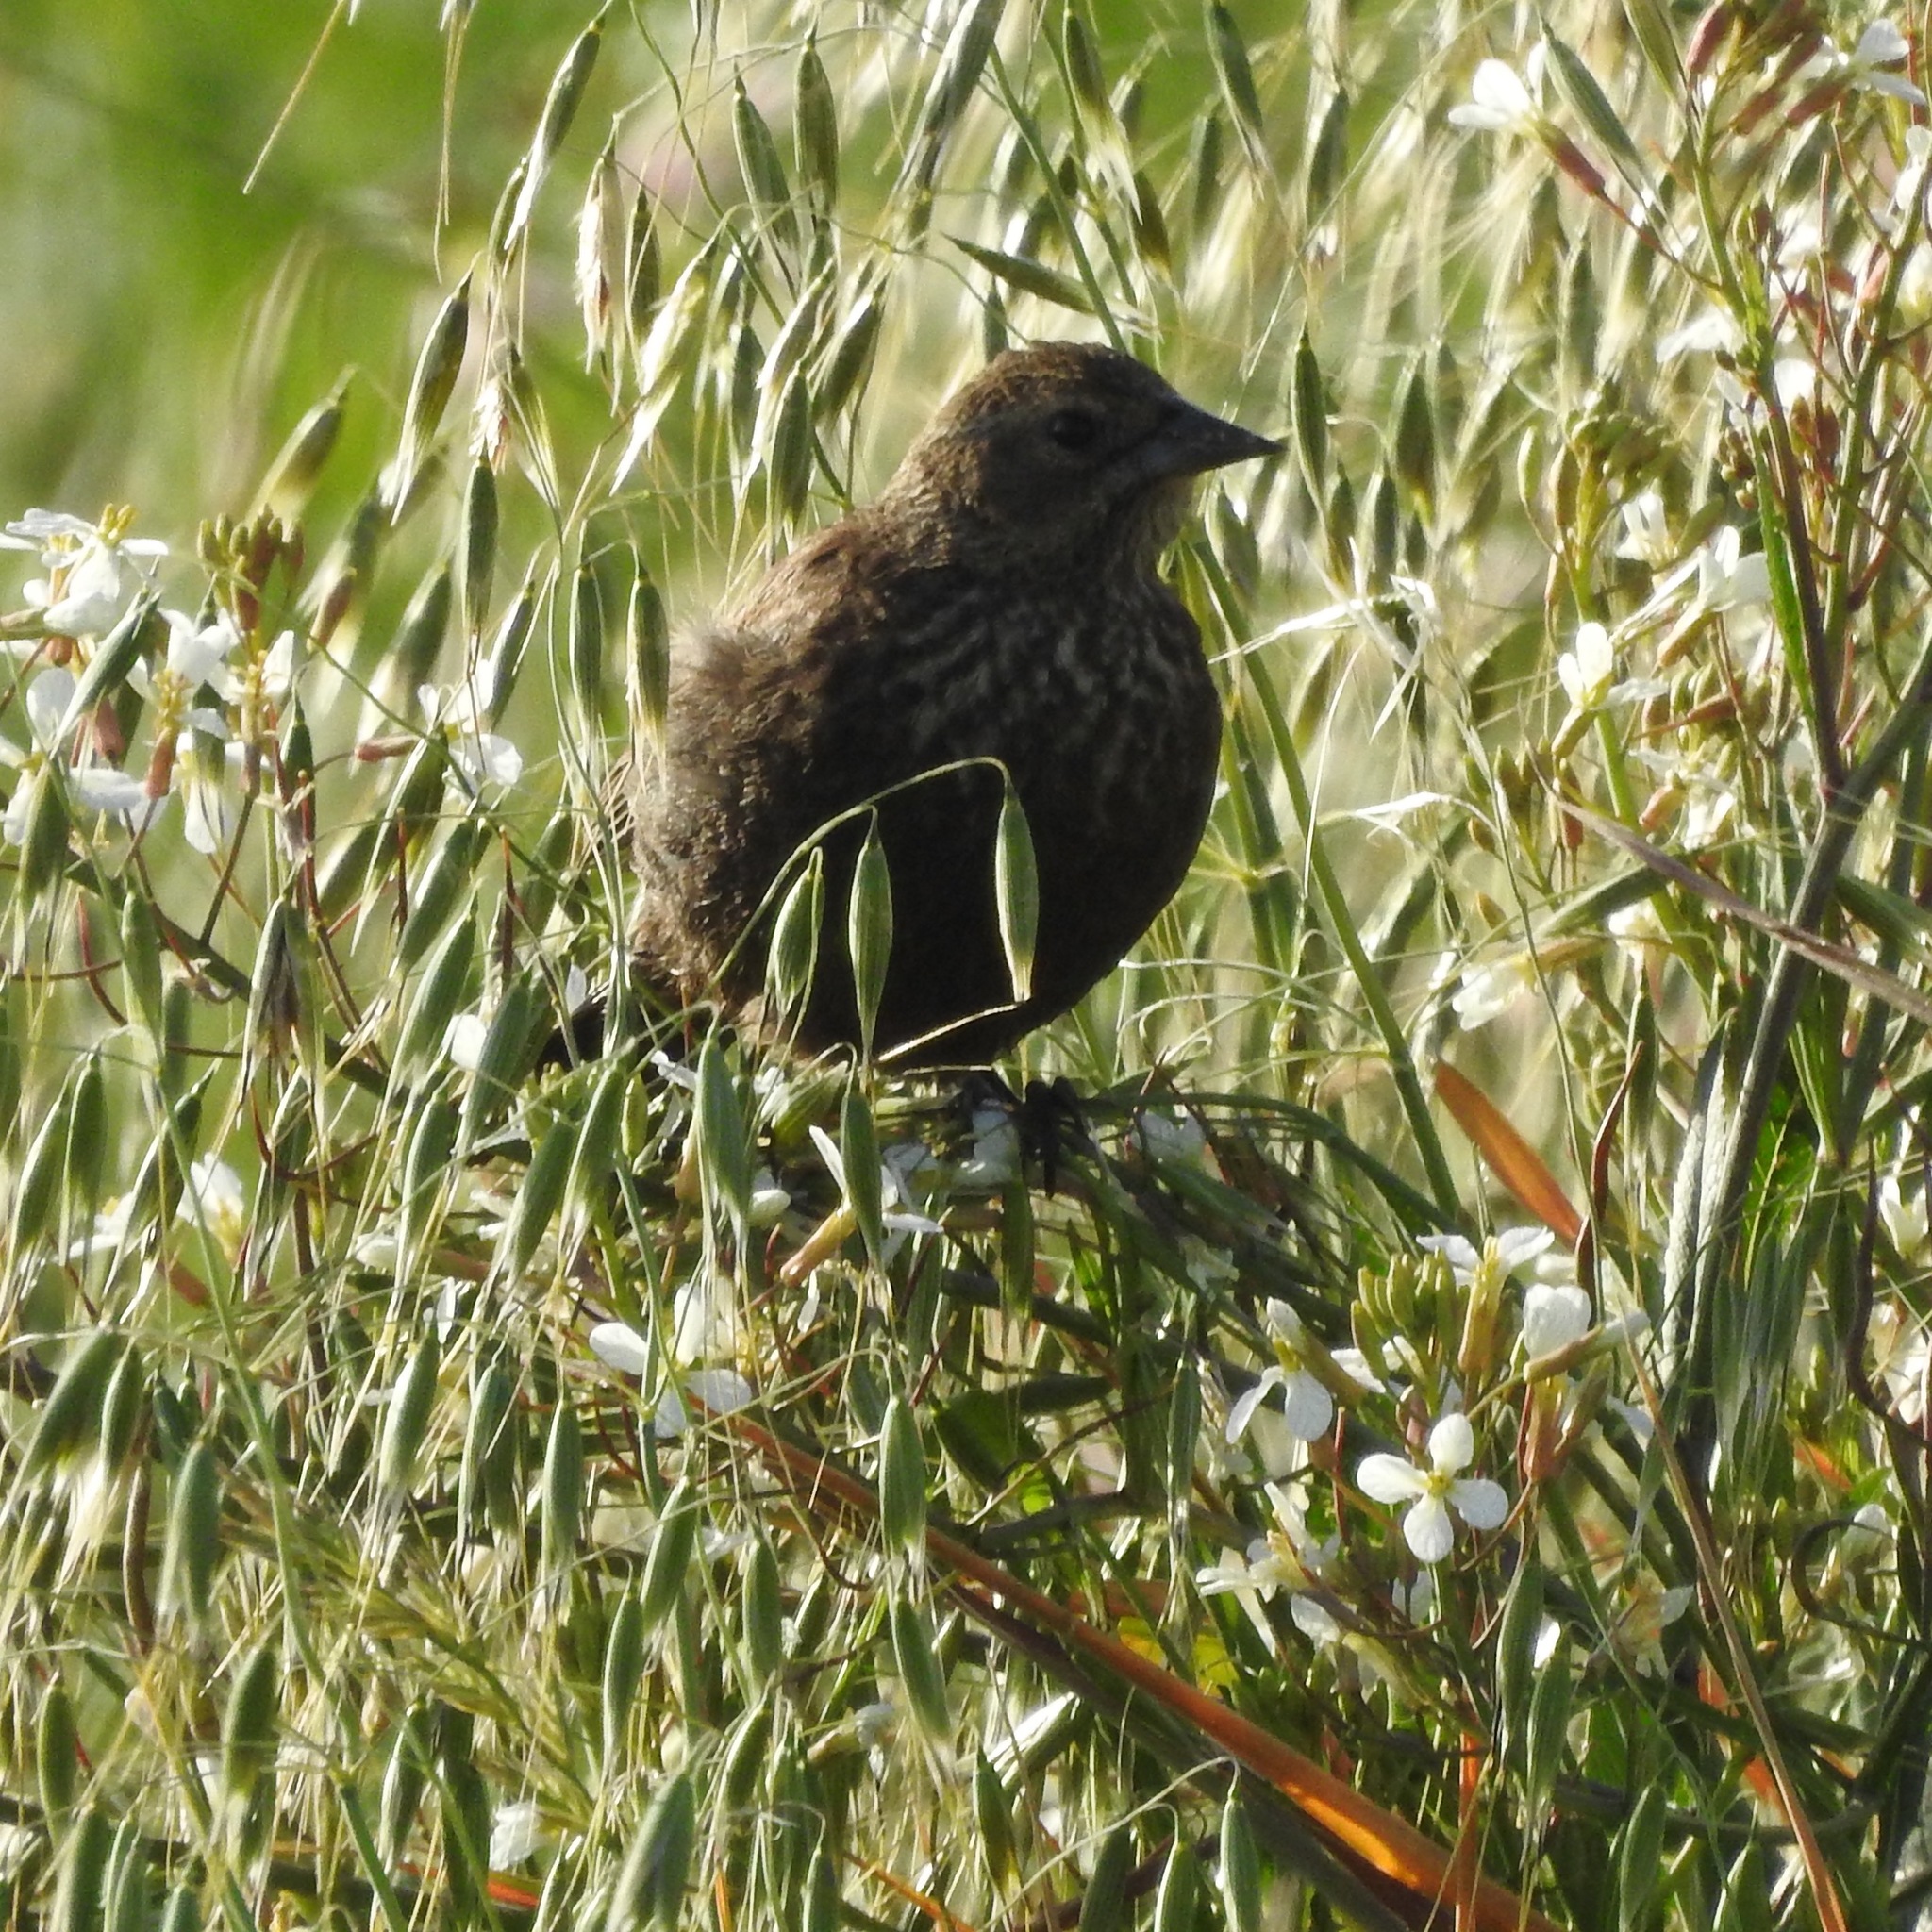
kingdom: Animalia
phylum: Chordata
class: Aves
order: Passeriformes
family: Icteridae
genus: Agelaius
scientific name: Agelaius phoeniceus
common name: Red-winged blackbird
